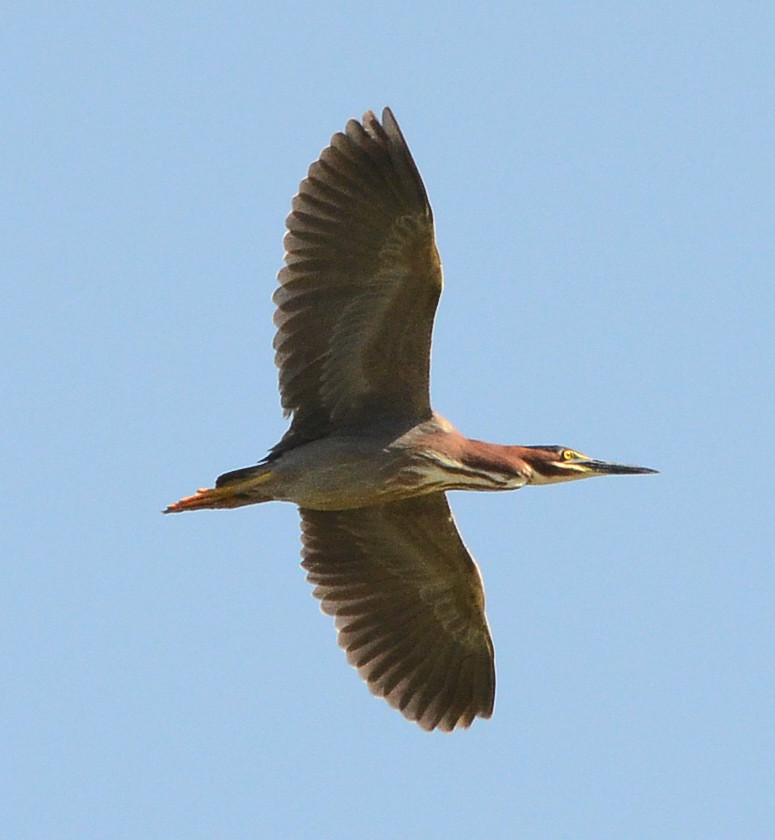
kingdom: Animalia
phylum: Chordata
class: Aves
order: Pelecaniformes
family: Ardeidae
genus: Butorides
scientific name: Butorides virescens
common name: Green heron
